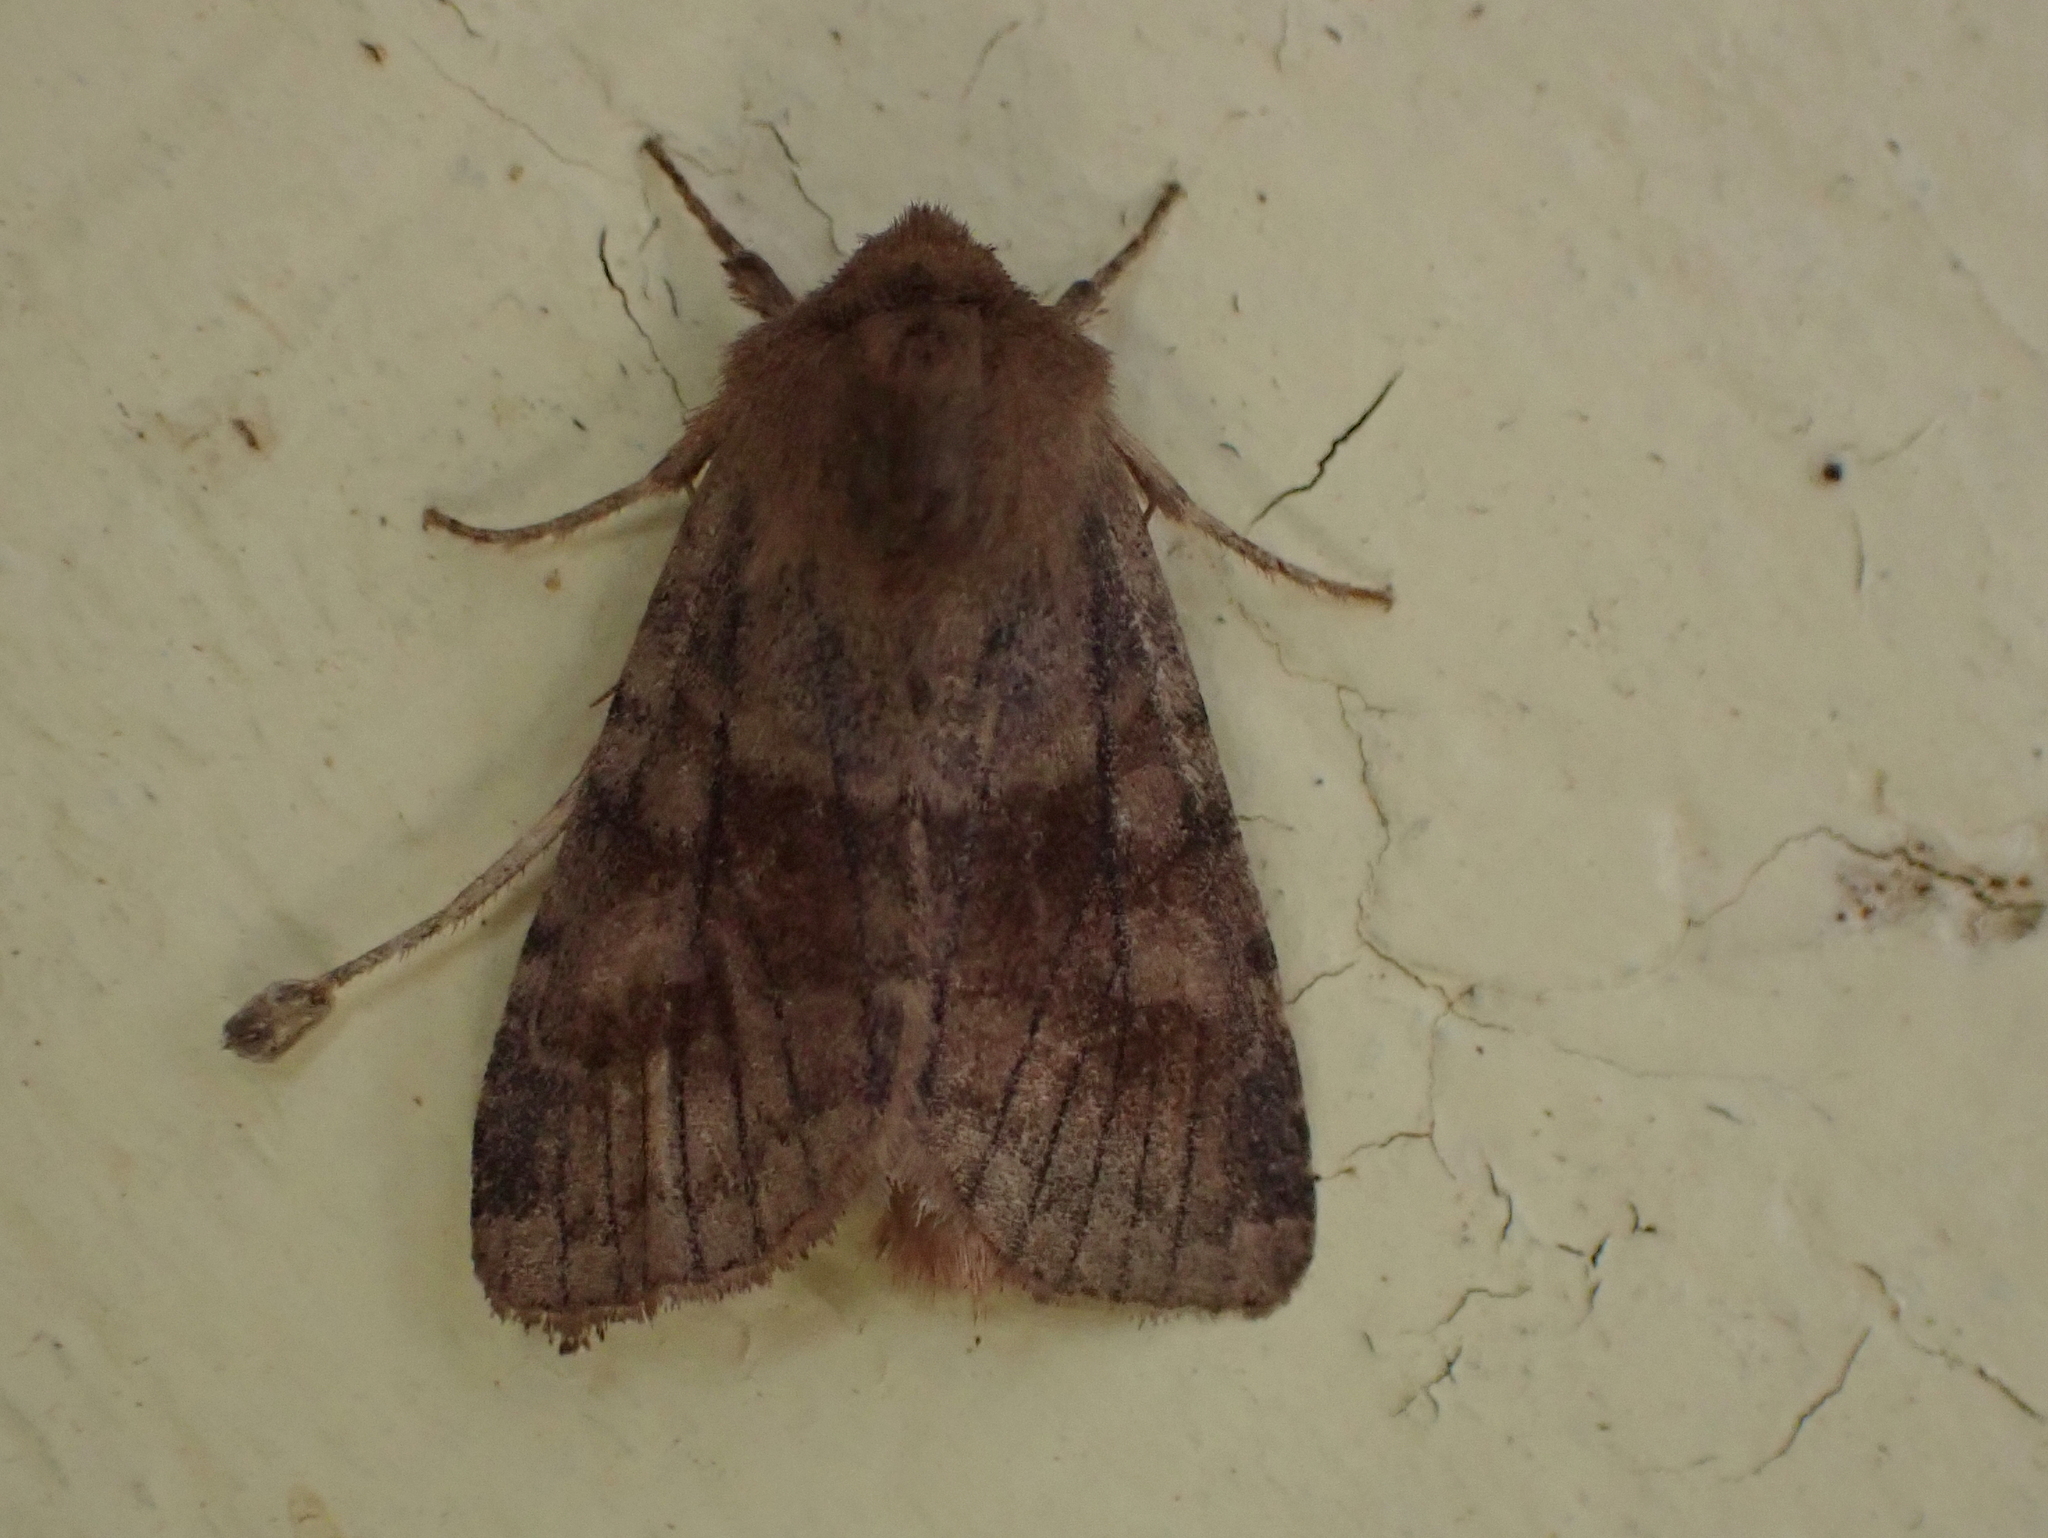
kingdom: Animalia
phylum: Arthropoda
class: Insecta
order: Lepidoptera
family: Noctuidae
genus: Nephelodes
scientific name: Nephelodes minians
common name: Bronzed cutworm
